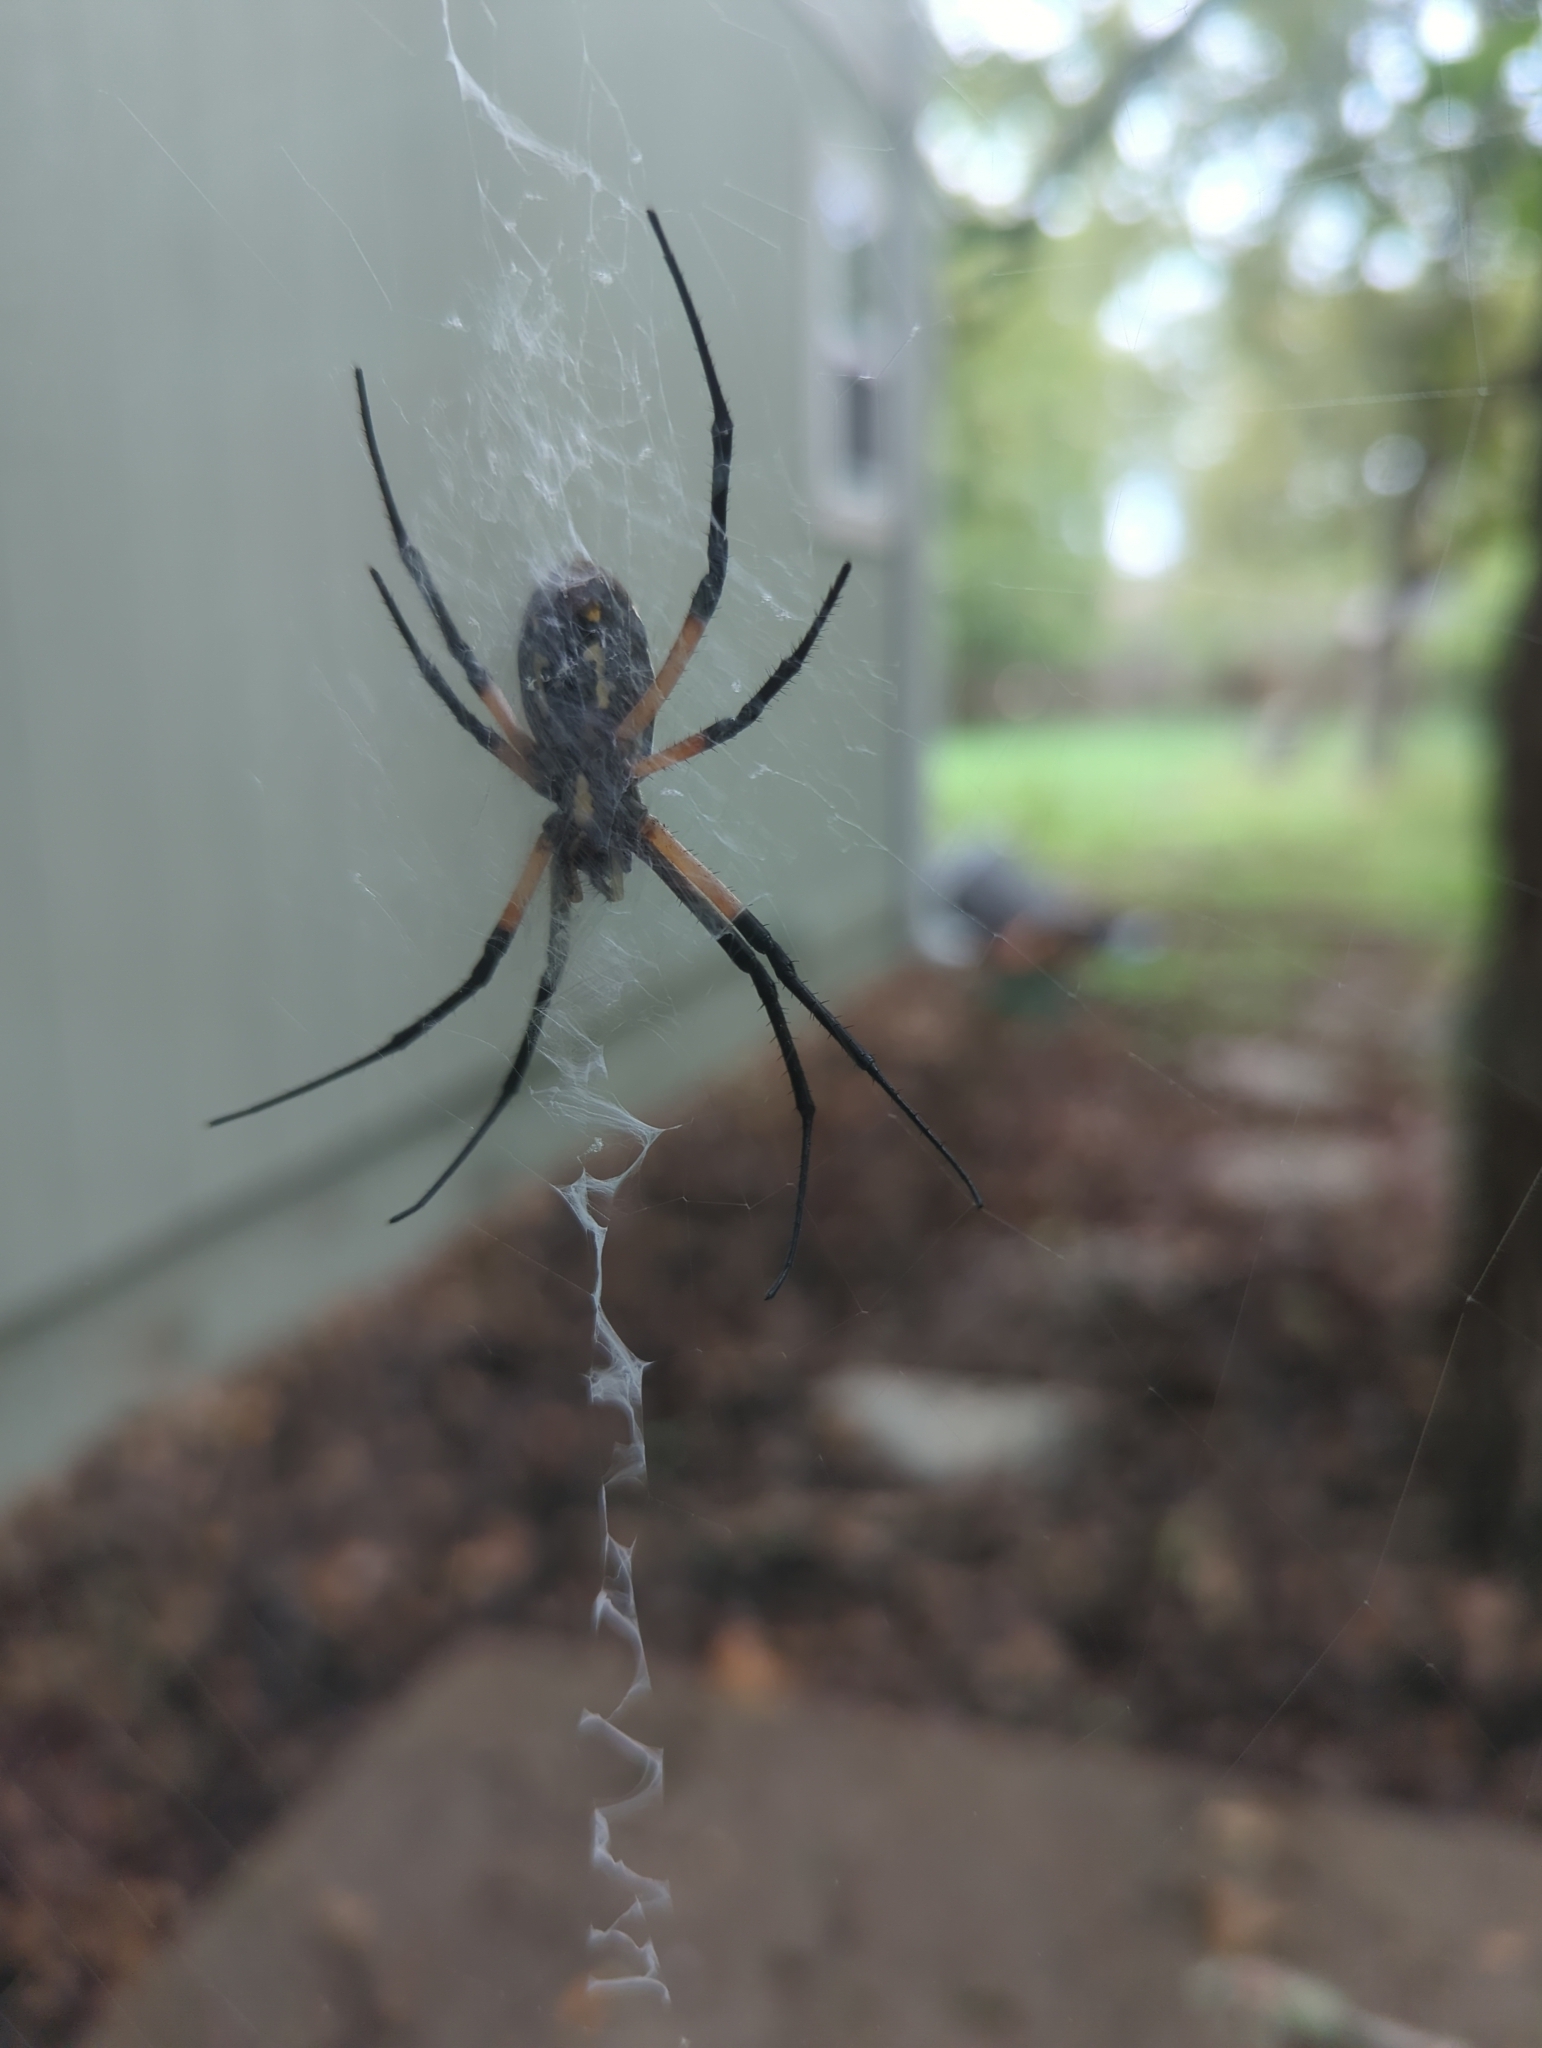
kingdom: Animalia
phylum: Arthropoda
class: Arachnida
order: Araneae
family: Araneidae
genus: Argiope
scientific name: Argiope aurantia
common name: Orb weavers
